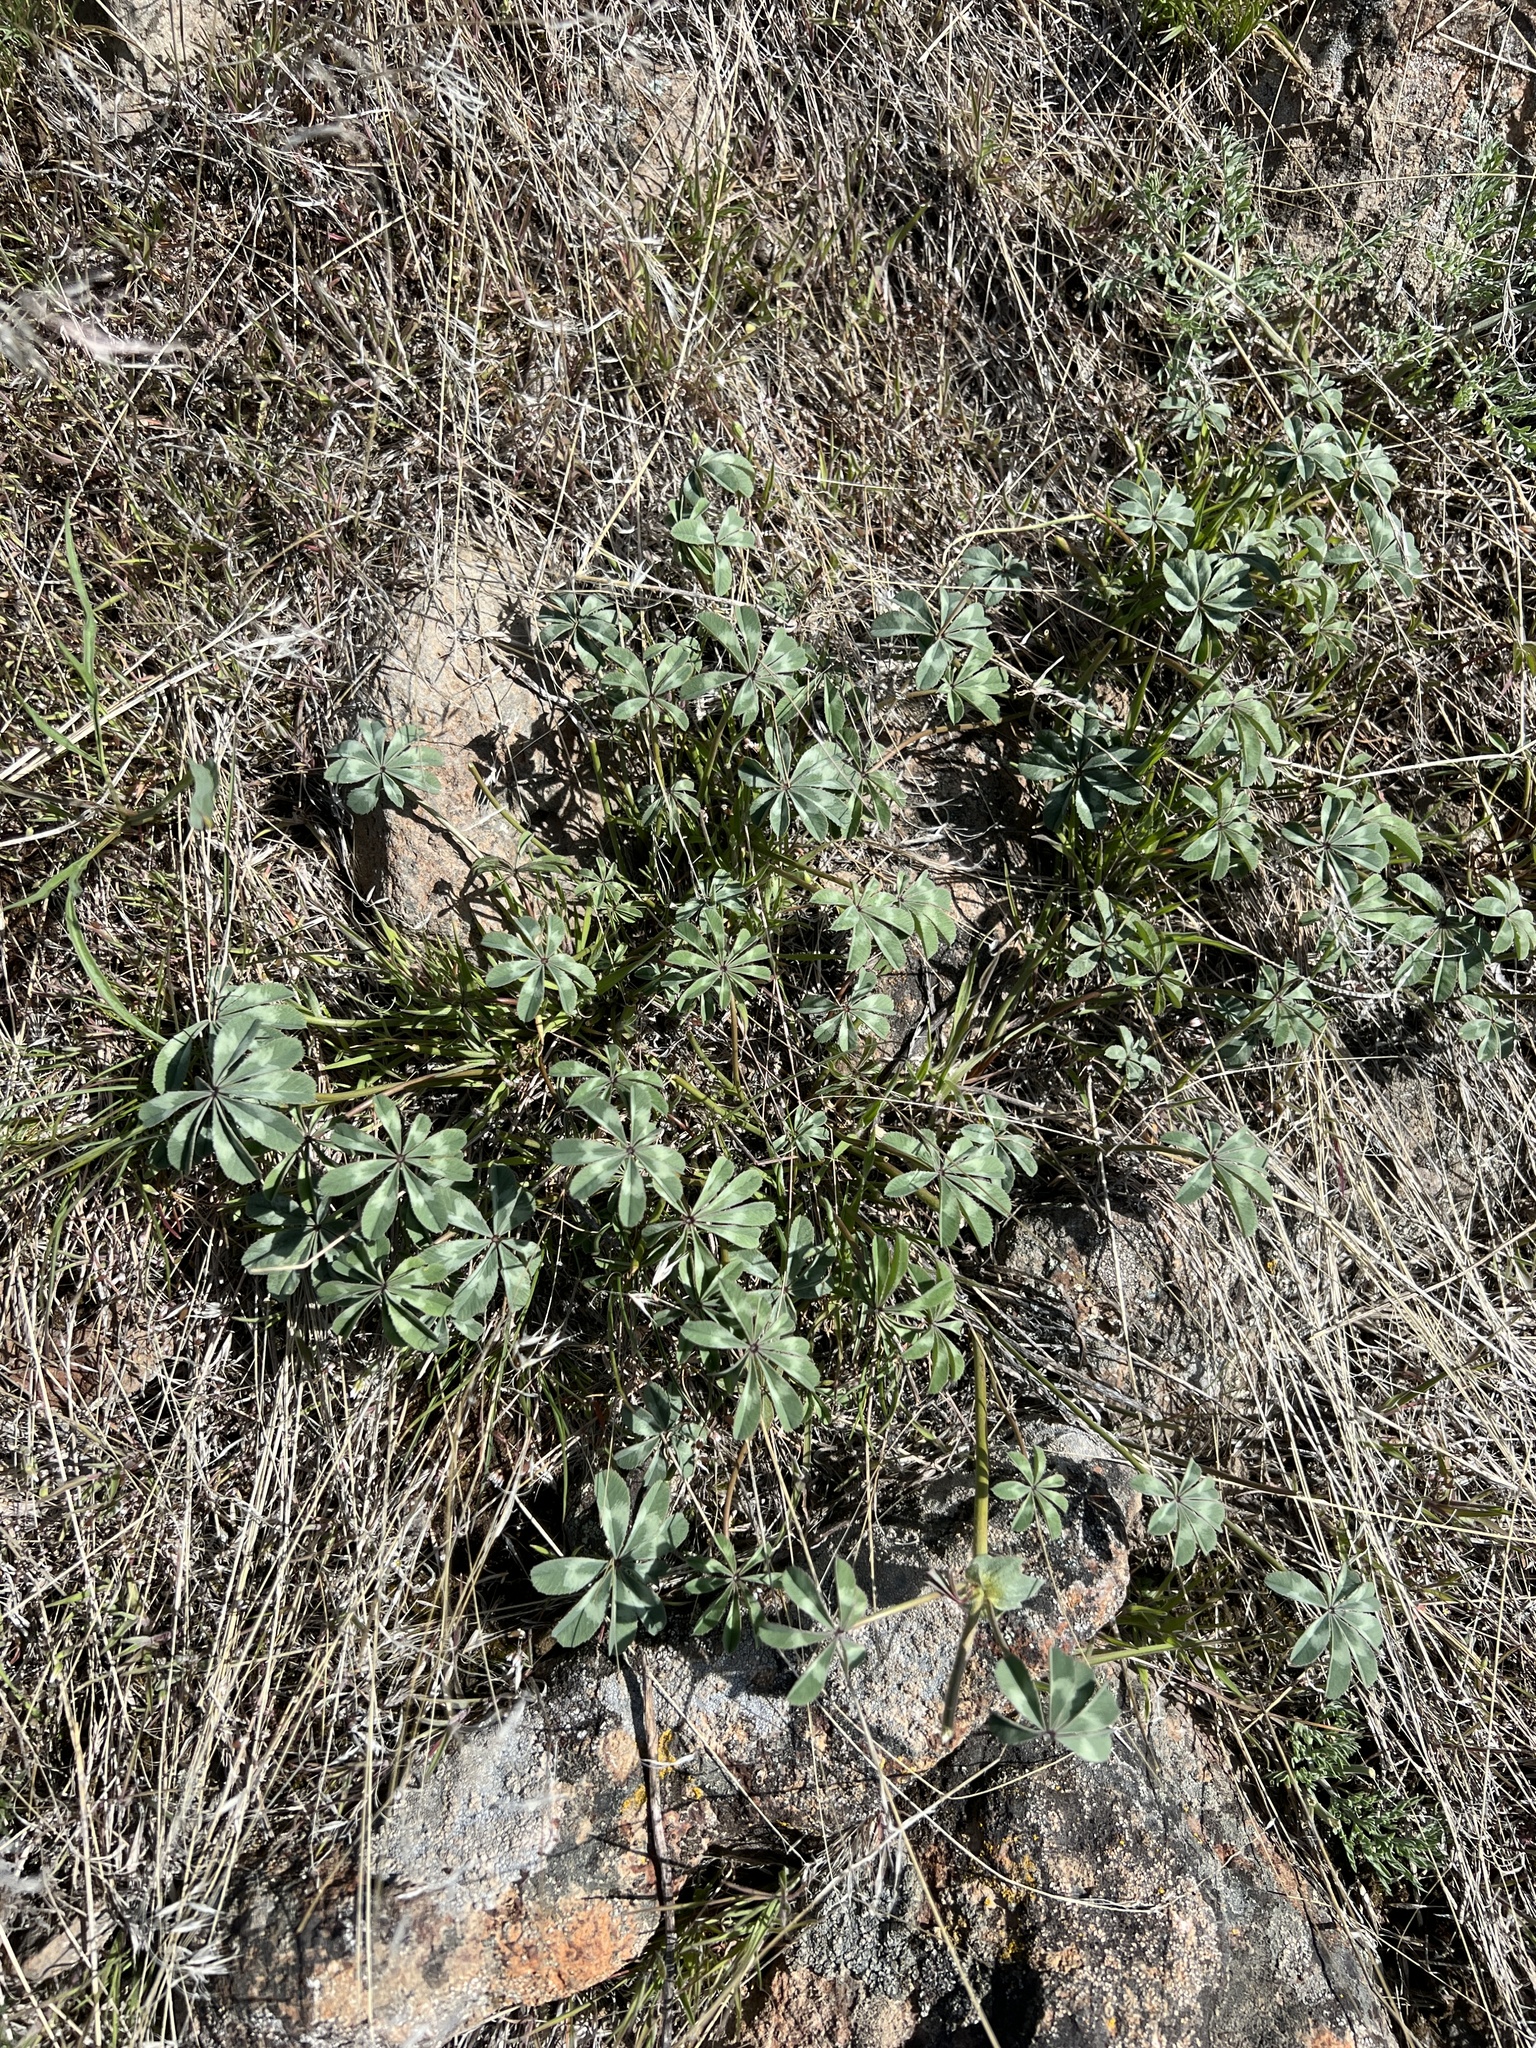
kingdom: Plantae
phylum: Tracheophyta
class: Magnoliopsida
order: Fabales
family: Fabaceae
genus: Trifolium
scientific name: Trifolium macrocephalum
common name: Large-head clover
